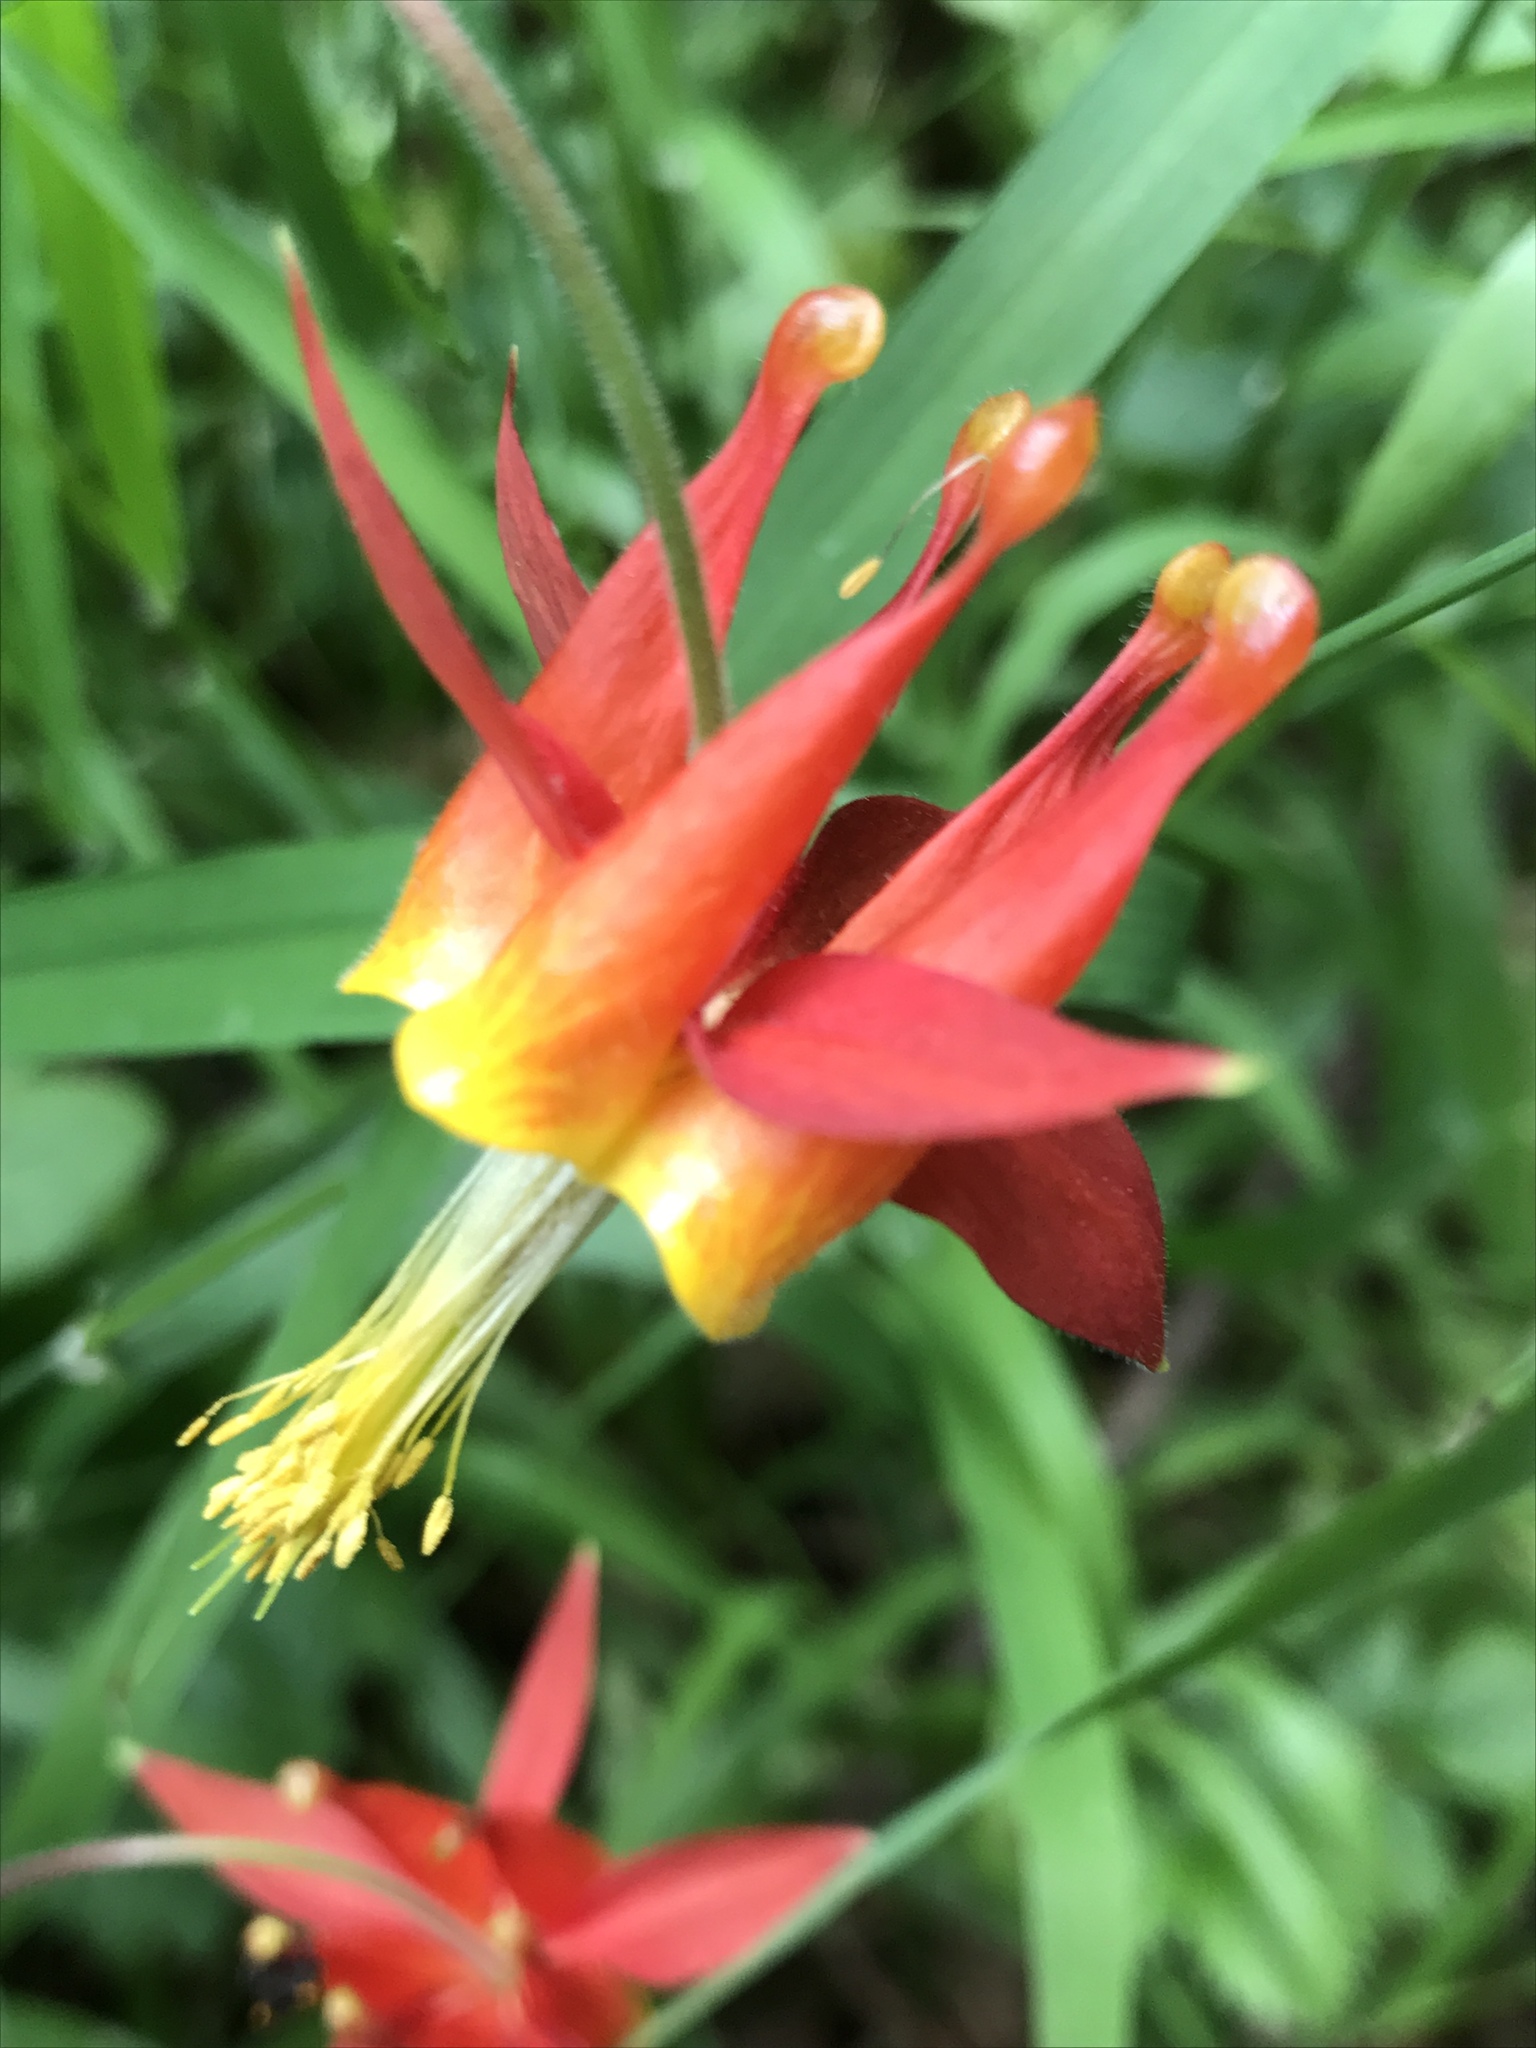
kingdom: Plantae
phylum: Tracheophyta
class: Magnoliopsida
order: Ranunculales
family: Ranunculaceae
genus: Aquilegia
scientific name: Aquilegia formosa
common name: Sitka columbine
